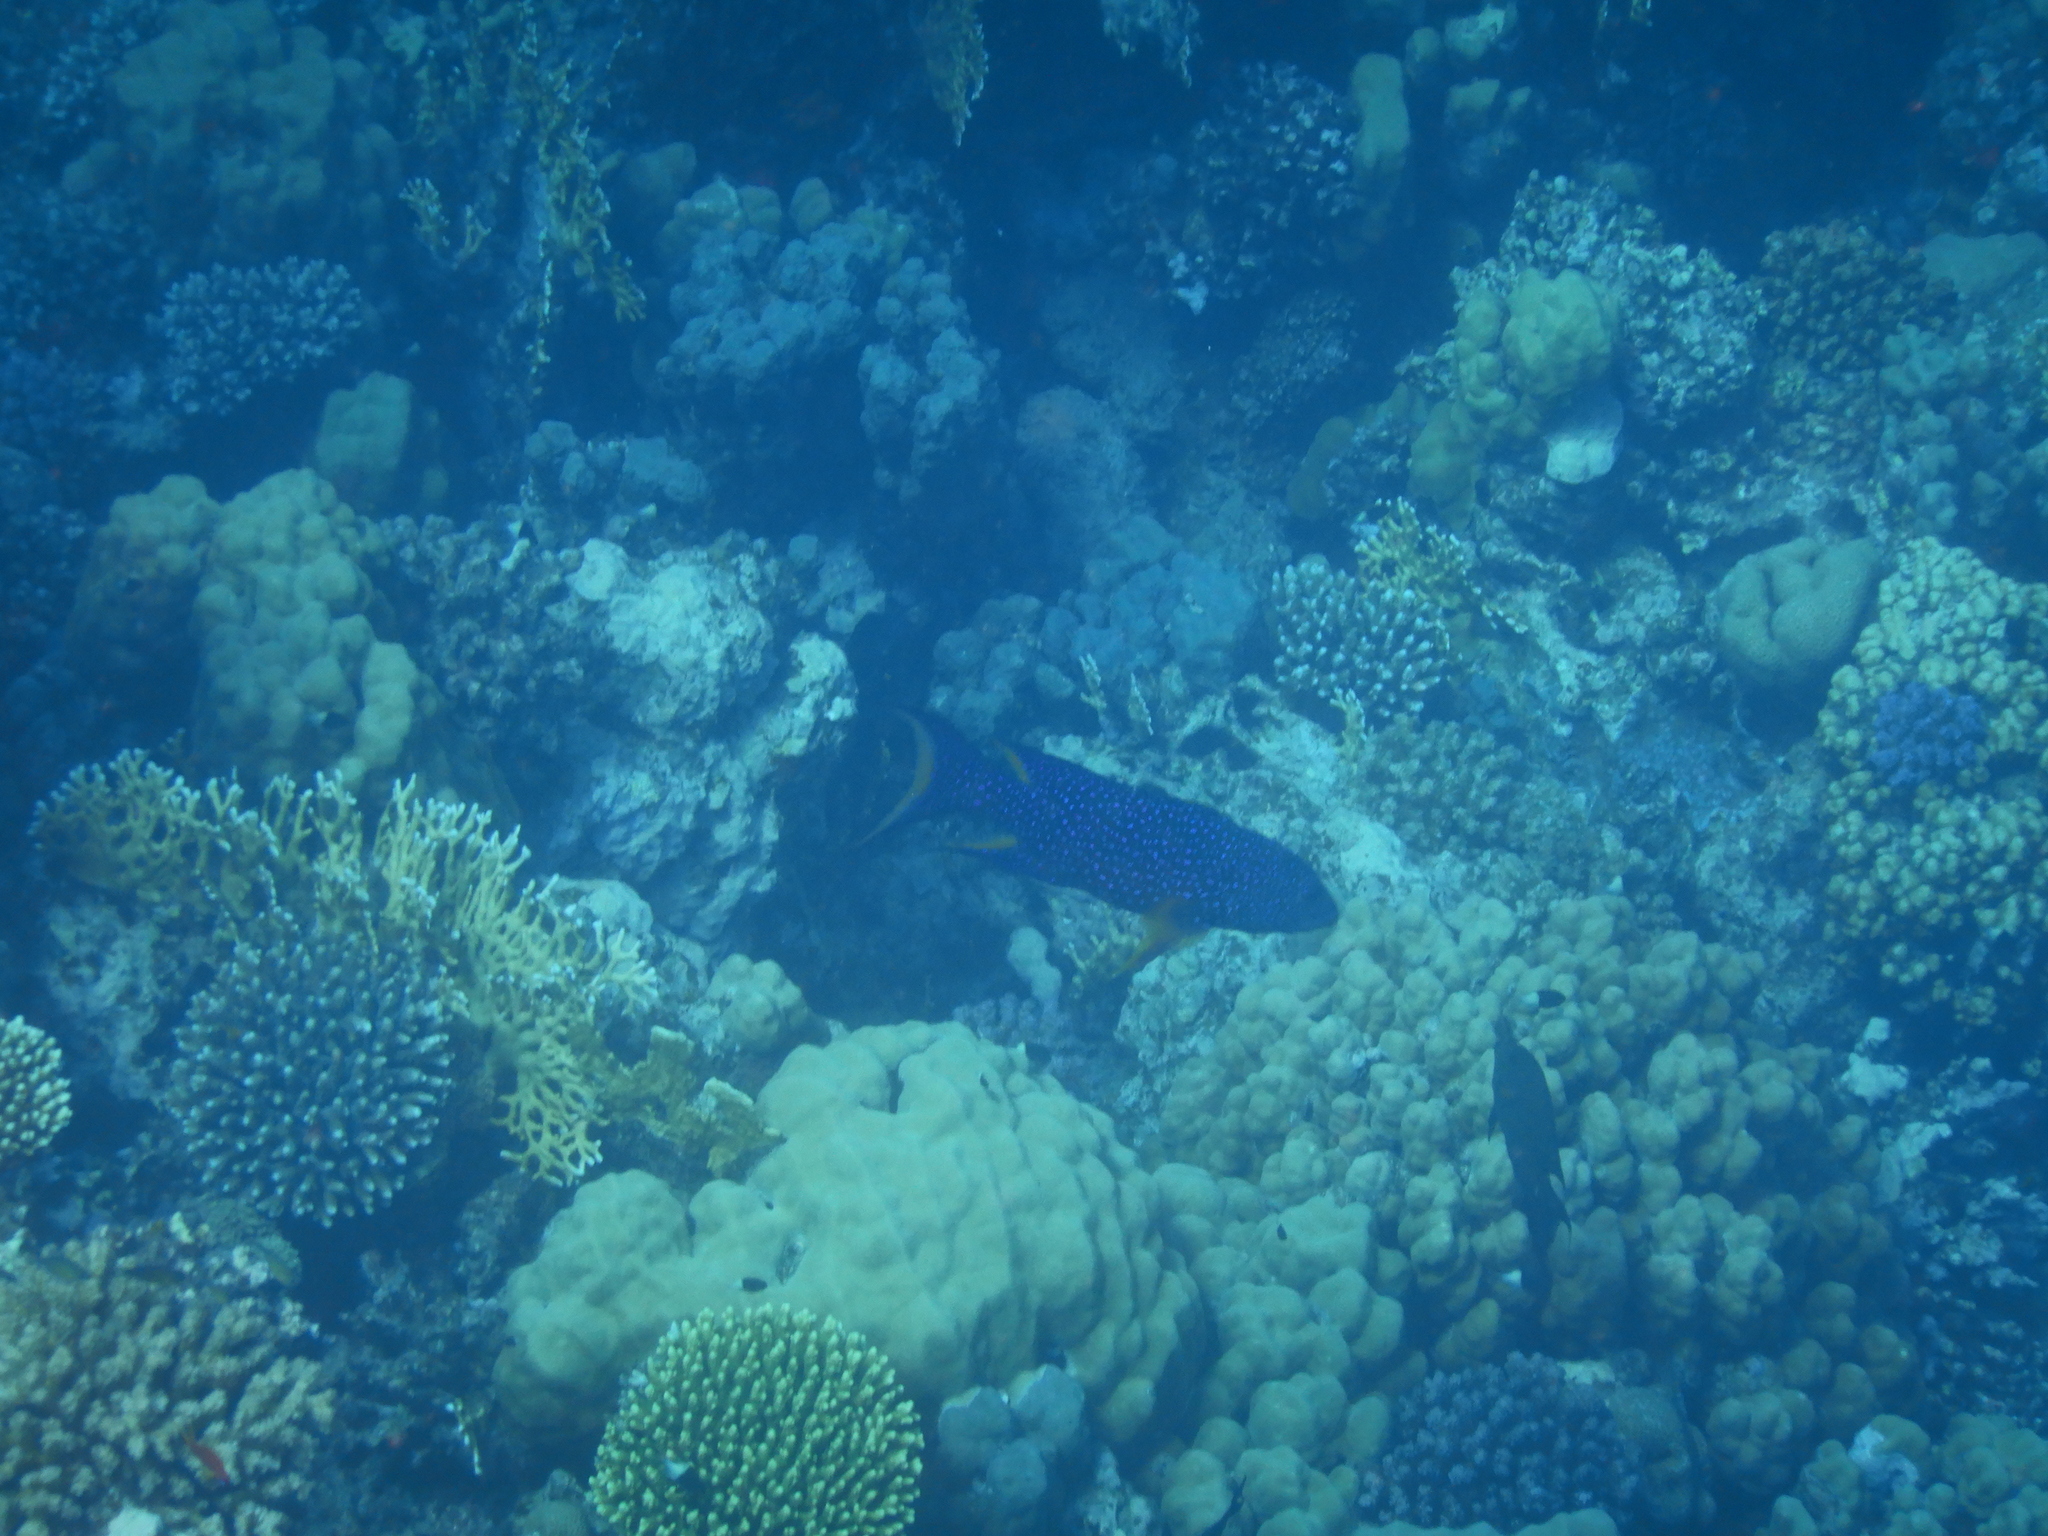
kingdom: Animalia
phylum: Chordata
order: Perciformes
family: Serranidae
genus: Variola
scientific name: Variola louti
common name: Yellow-edged lyretail
